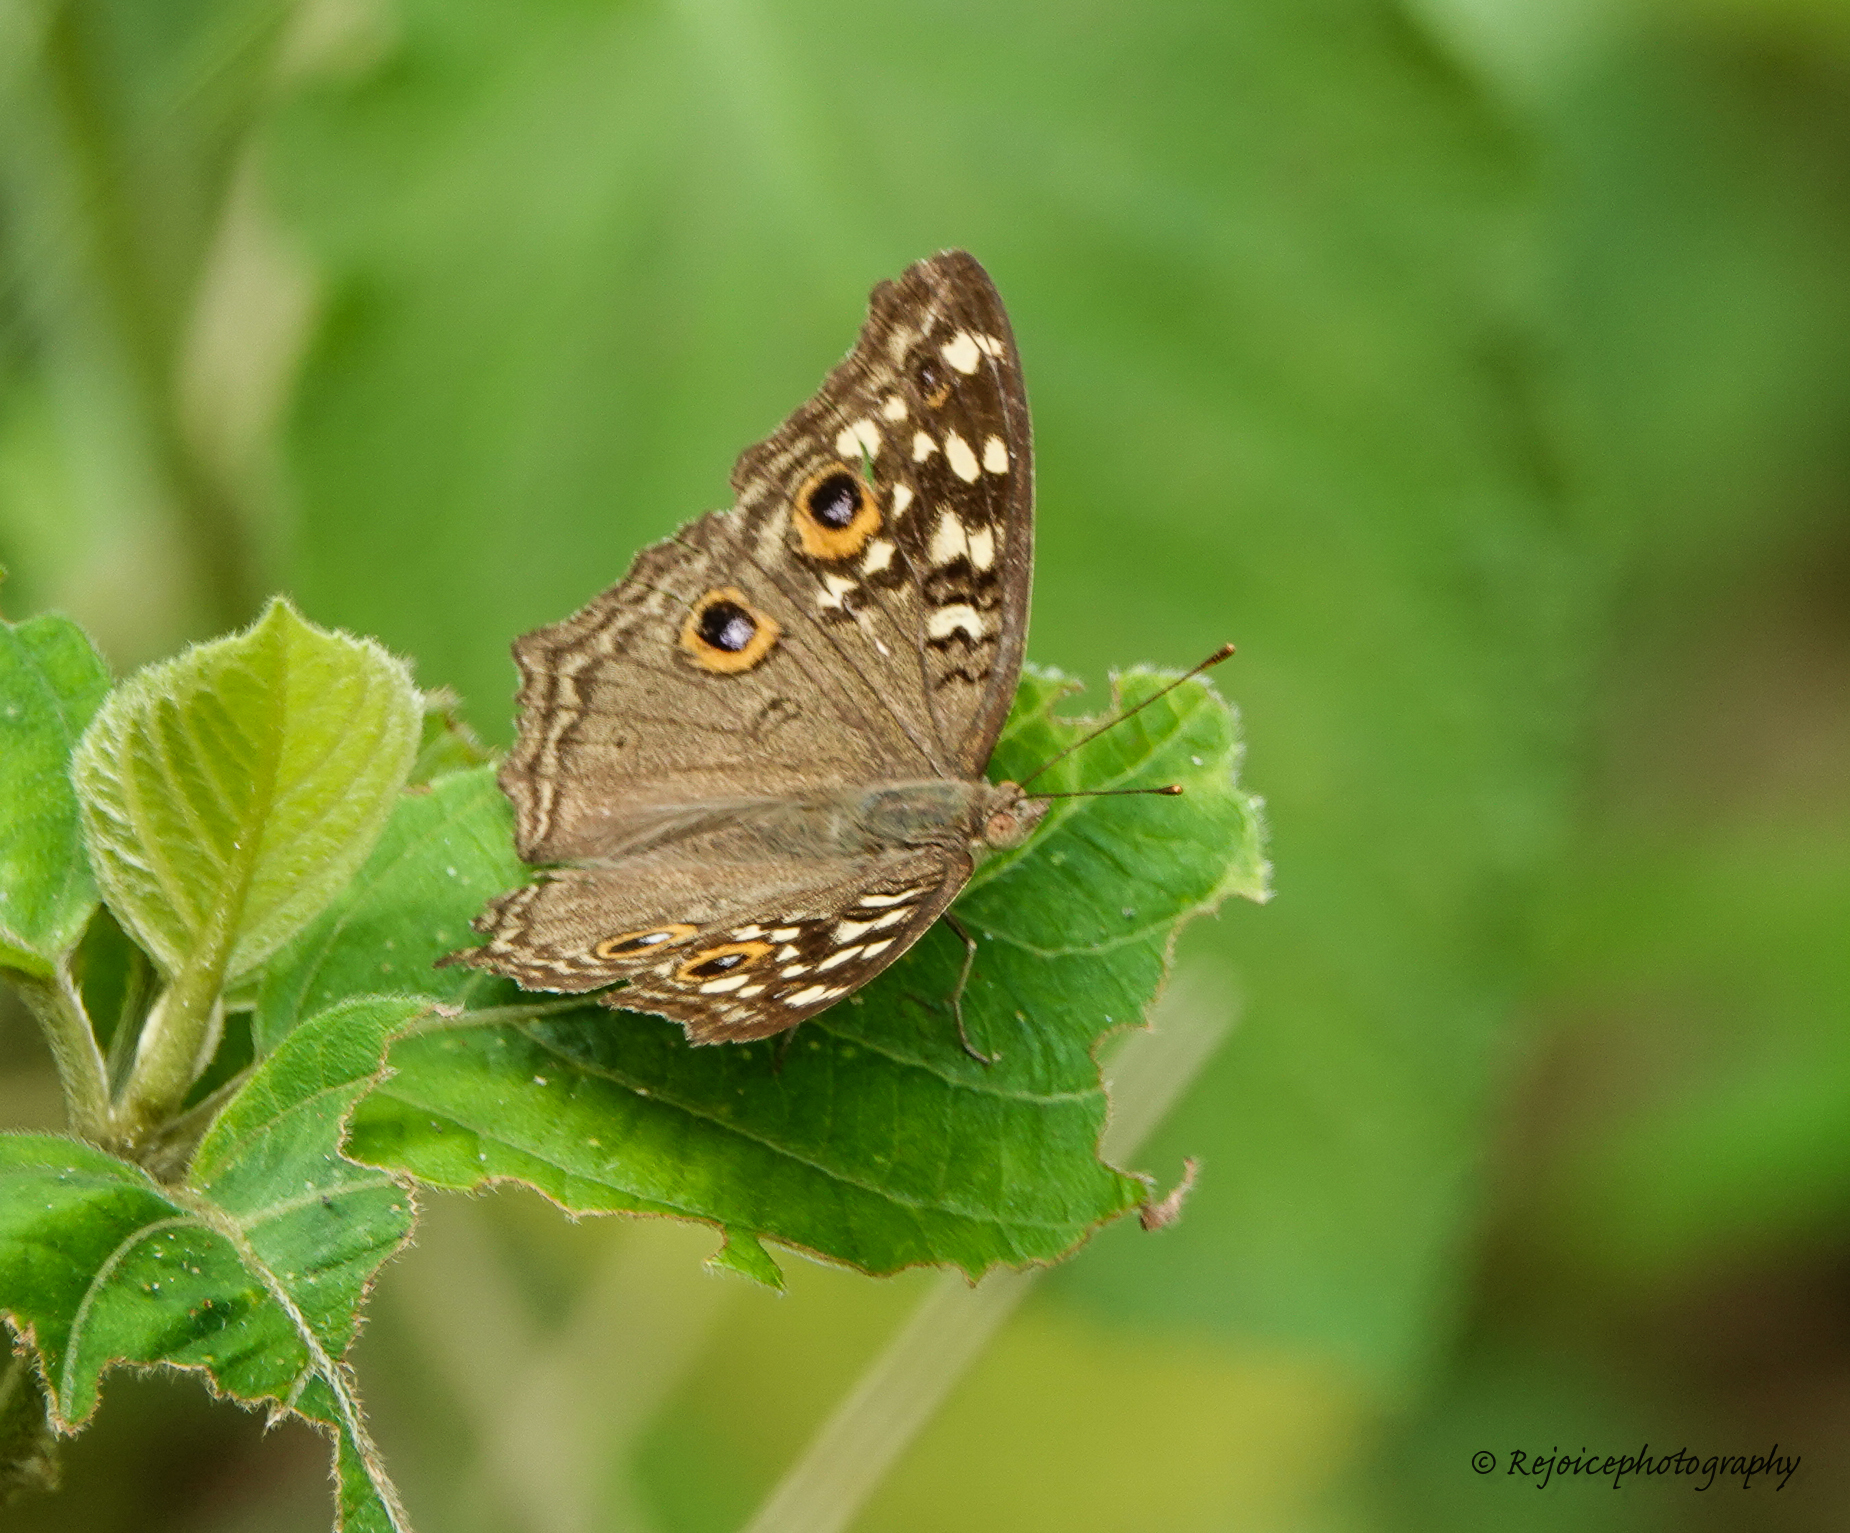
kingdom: Animalia
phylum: Arthropoda
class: Insecta
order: Lepidoptera
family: Nymphalidae
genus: Junonia
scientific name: Junonia lemonias
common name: Lemon pansy
